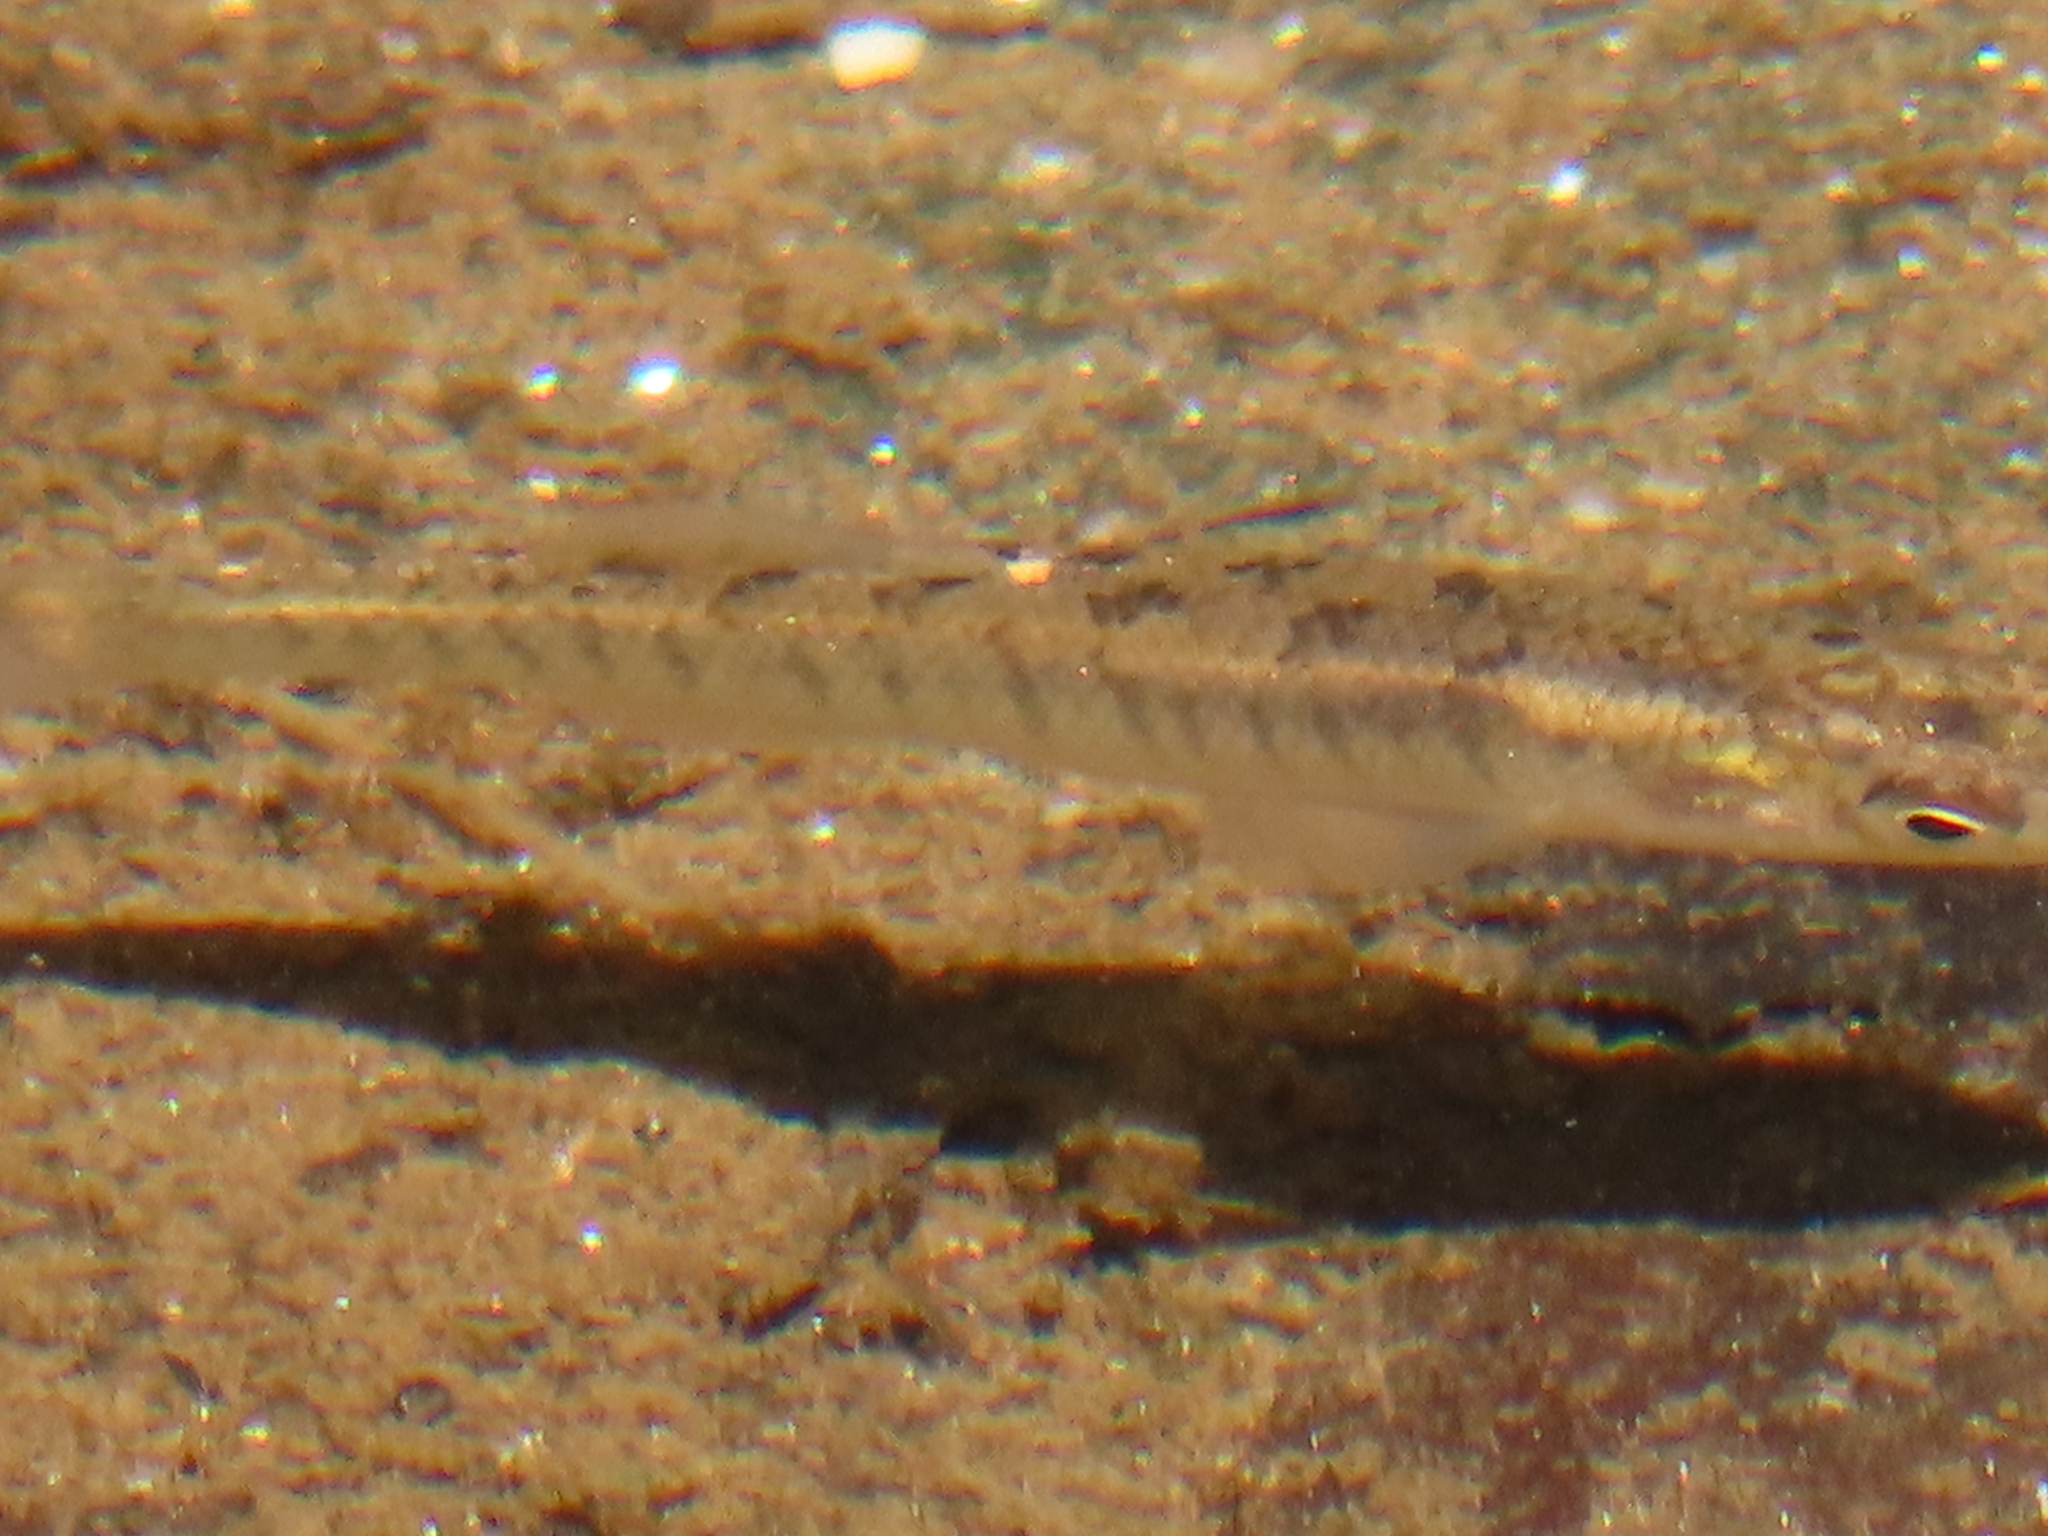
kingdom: Animalia
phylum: Chordata
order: Cyprinodontiformes
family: Fundulidae
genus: Fundulus
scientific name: Fundulus diaphanus
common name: Banded killifish
